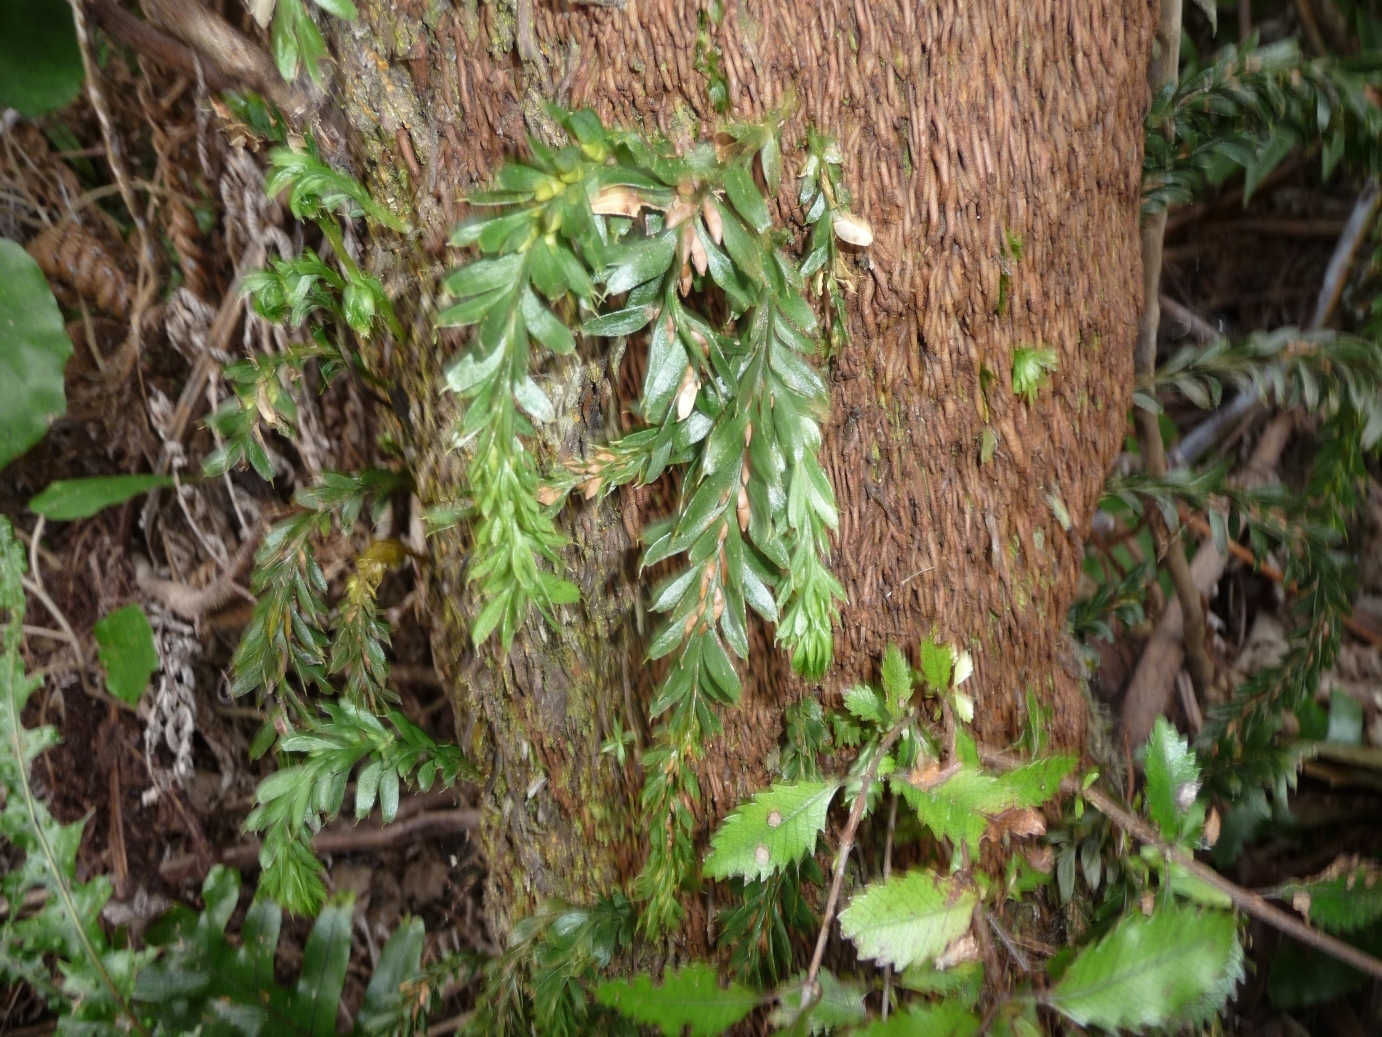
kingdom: Plantae
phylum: Tracheophyta
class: Polypodiopsida
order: Psilotales
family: Psilotaceae
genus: Tmesipteris
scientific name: Tmesipteris tannensis
